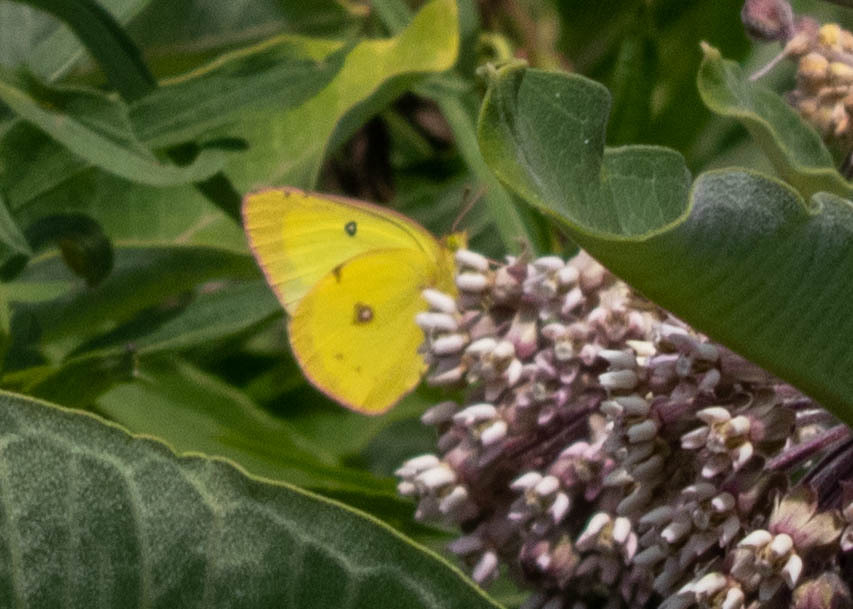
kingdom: Animalia
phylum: Arthropoda
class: Insecta
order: Lepidoptera
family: Pieridae
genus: Colias
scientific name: Colias philodice
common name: Clouded sulphur
